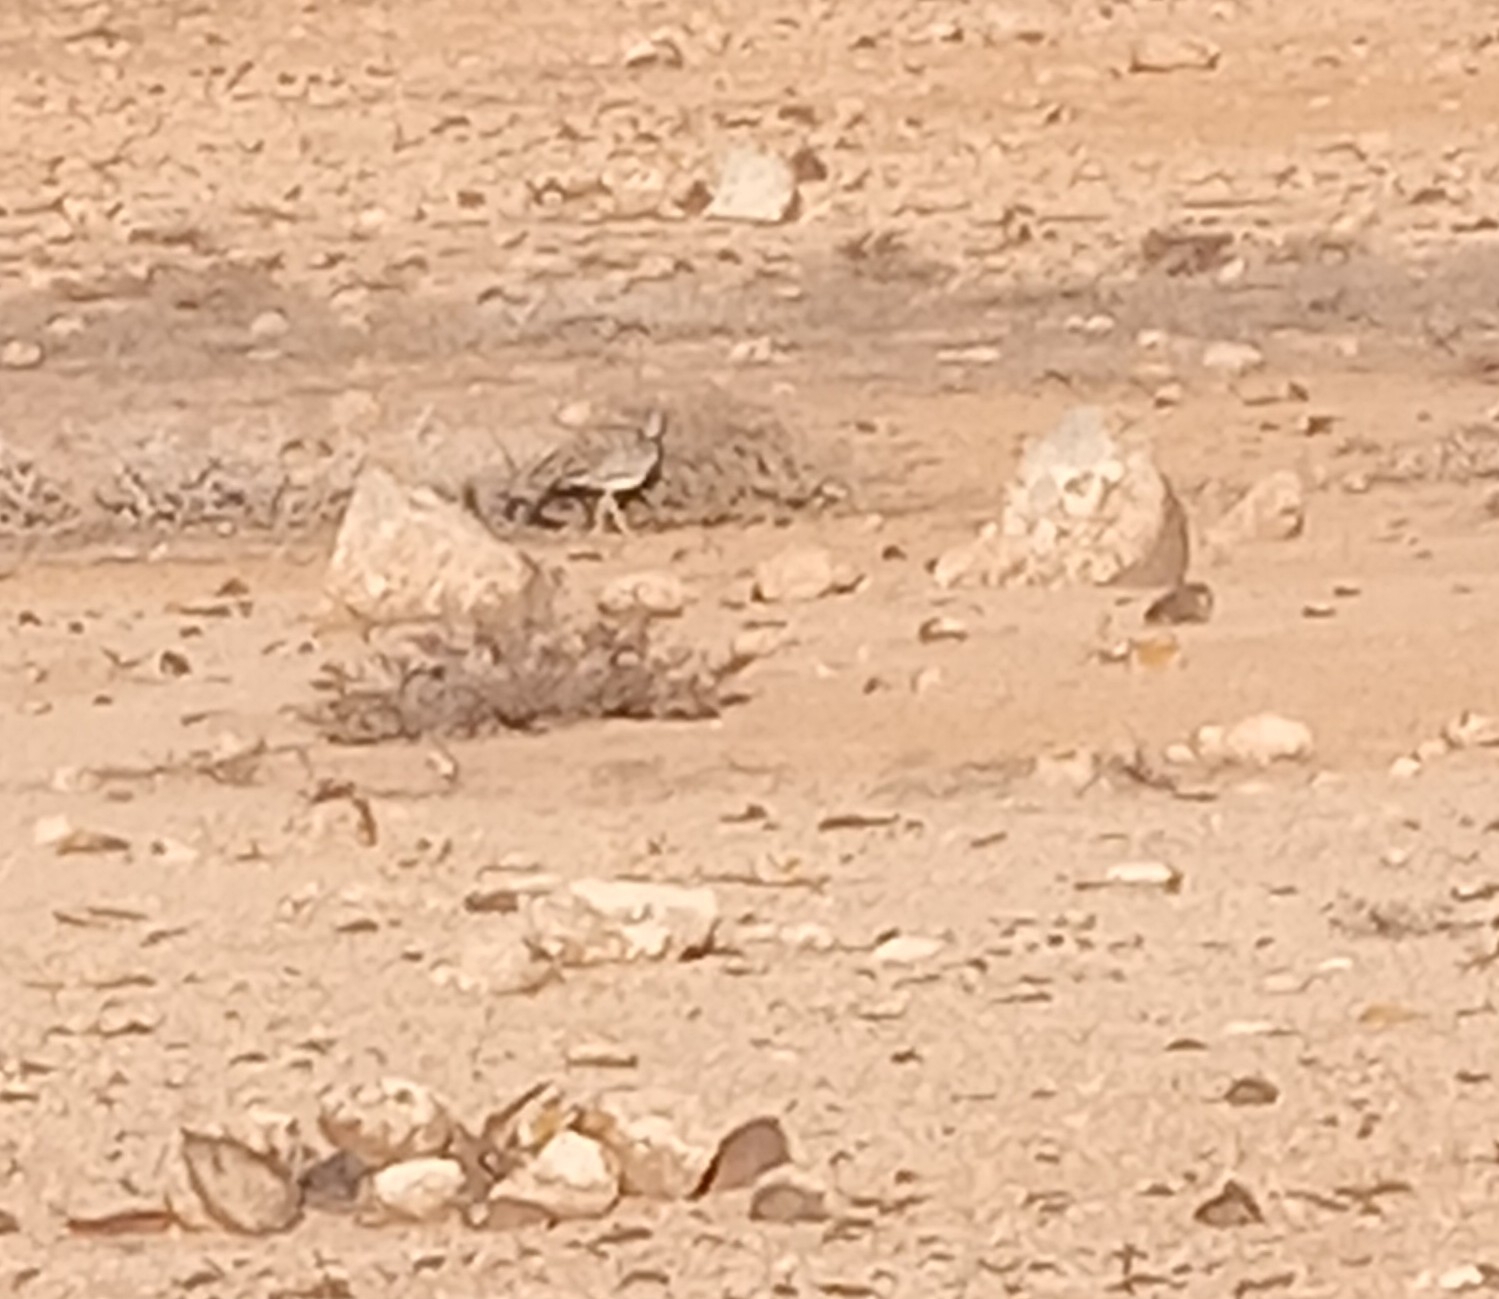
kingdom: Animalia
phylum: Chordata
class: Aves
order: Otidiformes
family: Otididae
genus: Chlamydotis
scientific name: Chlamydotis undulata
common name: Houbara bustard
